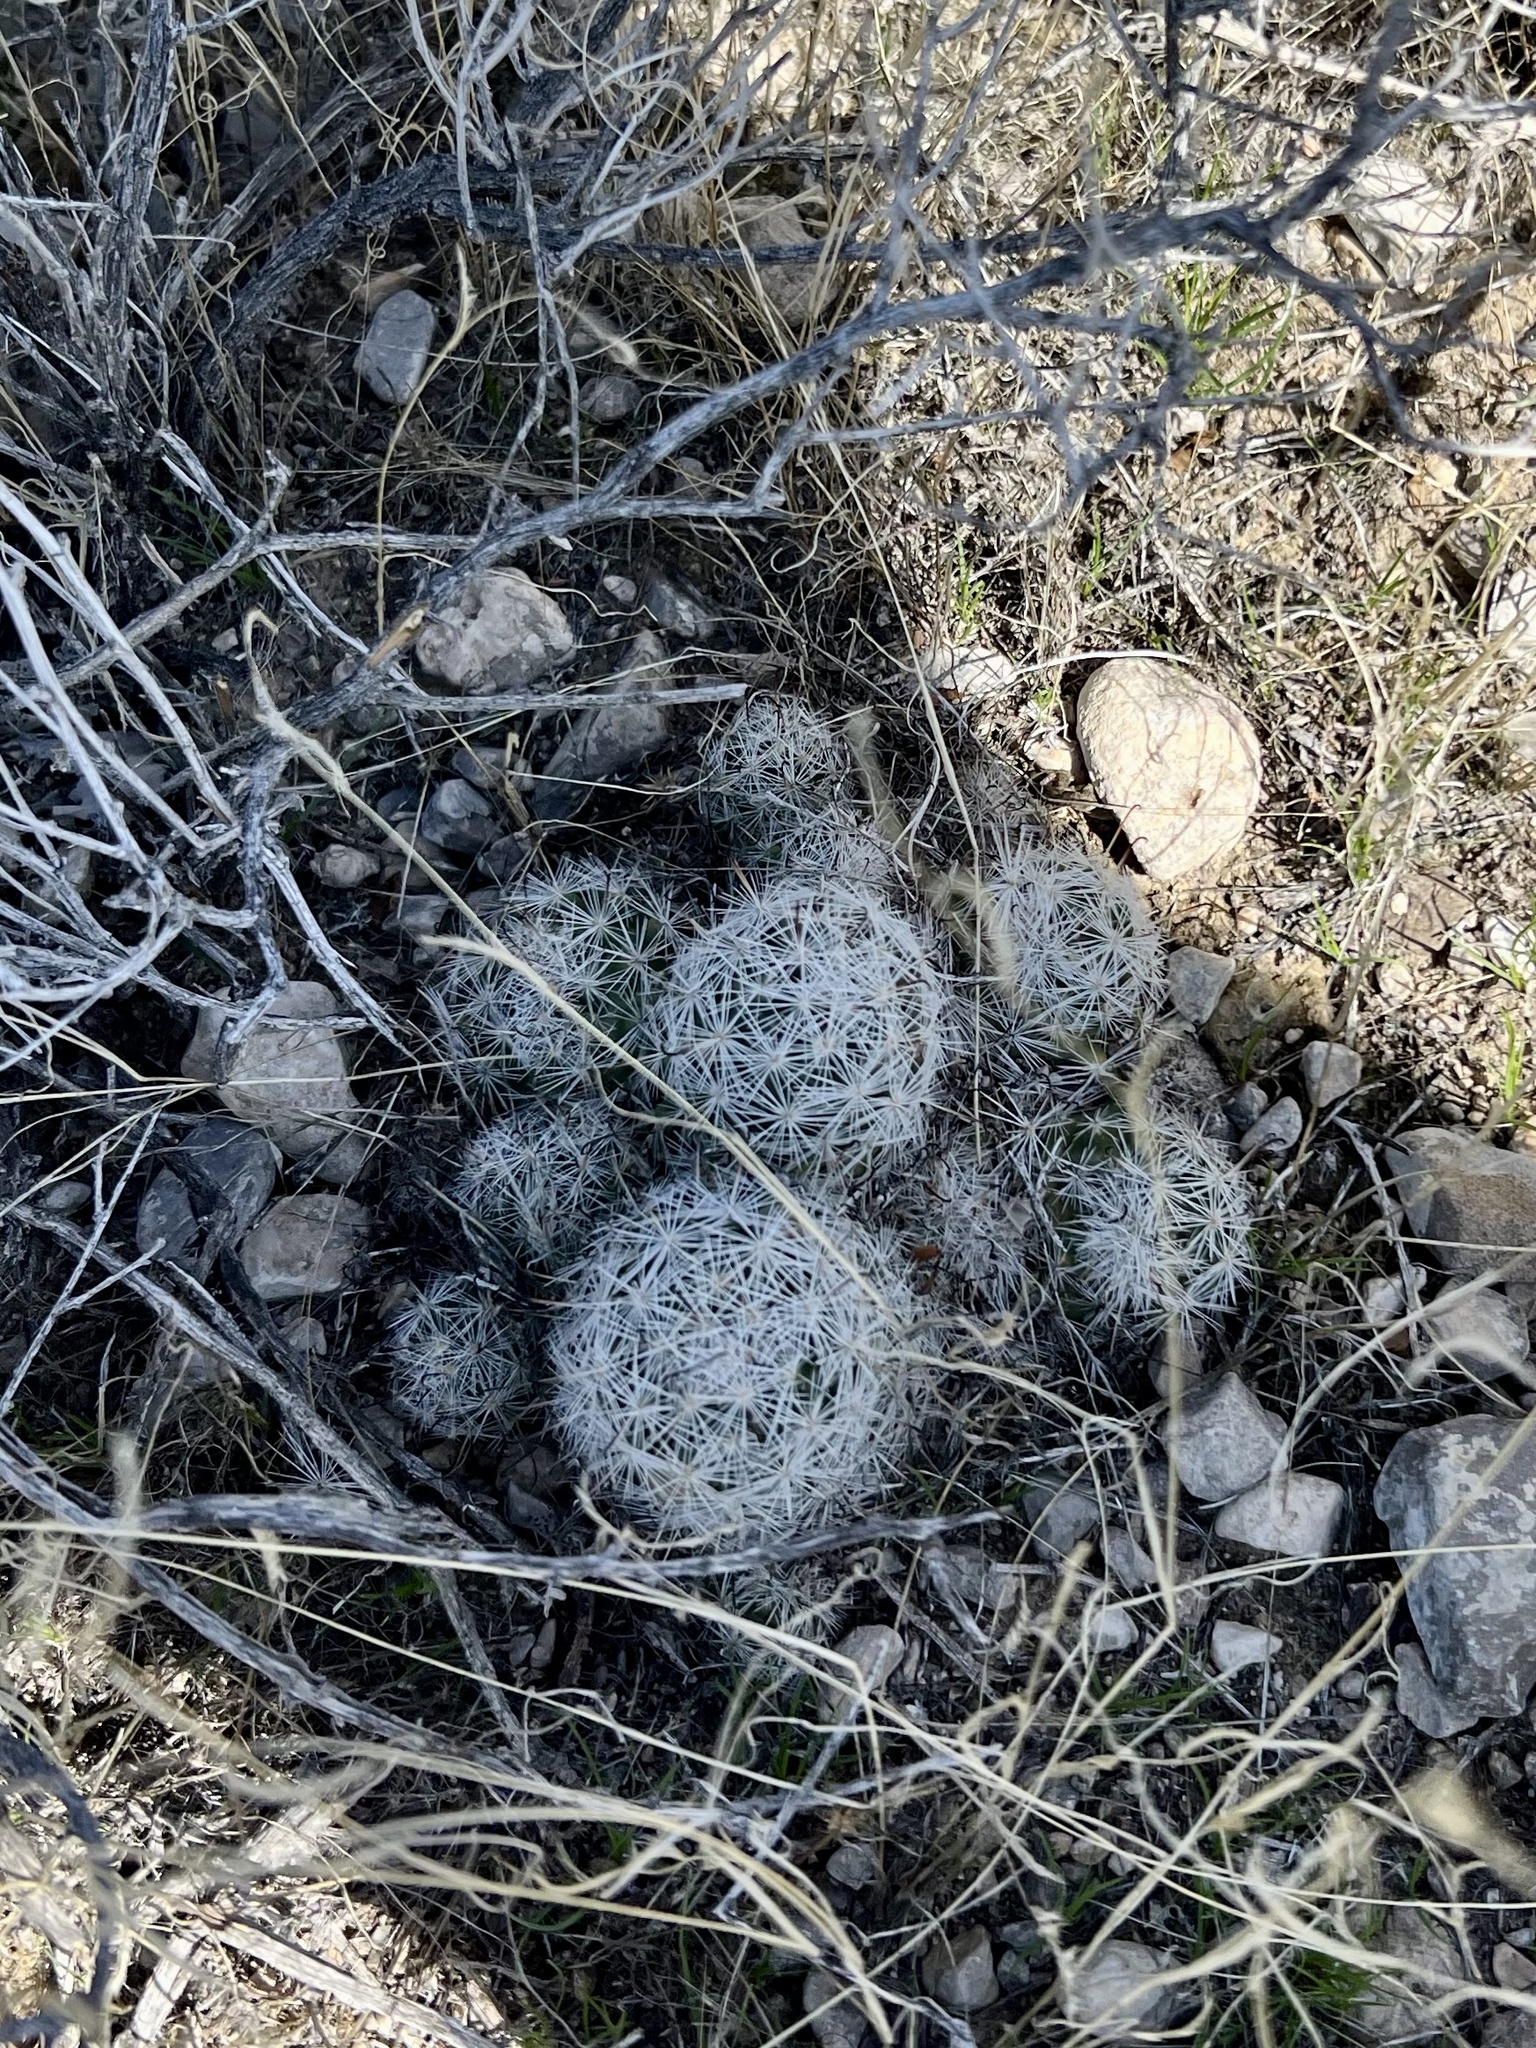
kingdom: Plantae
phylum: Tracheophyta
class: Magnoliopsida
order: Caryophyllales
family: Cactaceae
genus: Cochemiea
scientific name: Cochemiea tetrancistra
